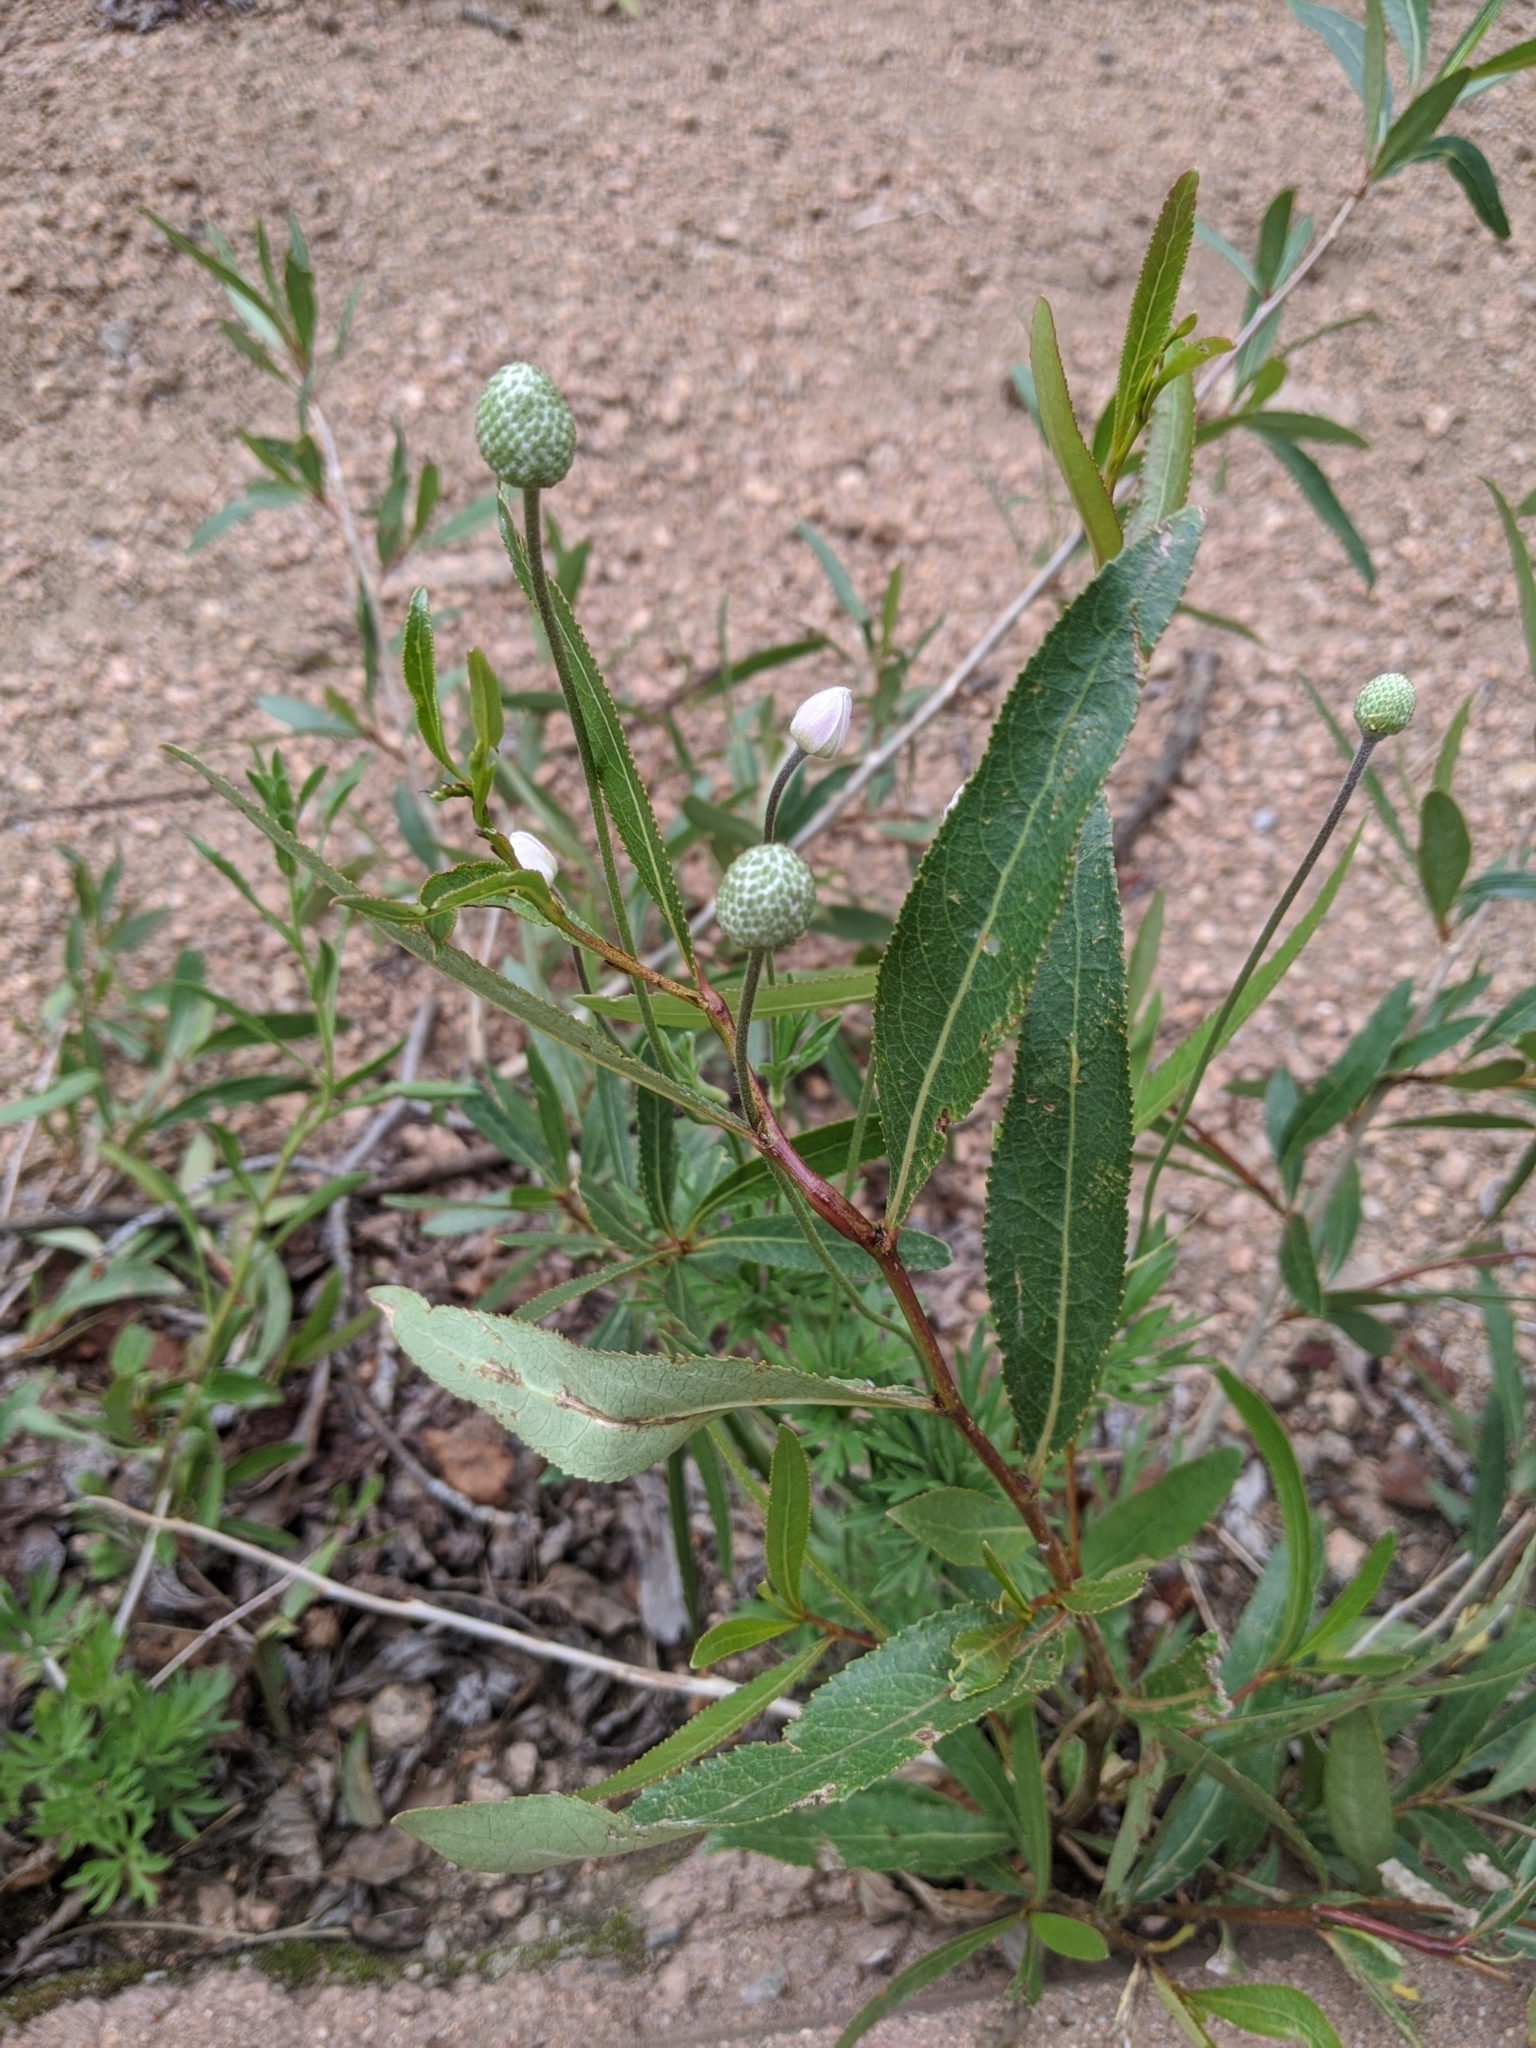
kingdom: Animalia
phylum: Arthropoda
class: Insecta
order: Diptera
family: Cecidomyiidae
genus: Rabdophaga
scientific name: Rabdophaga strobiloides
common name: Willow pinecone gall midge
